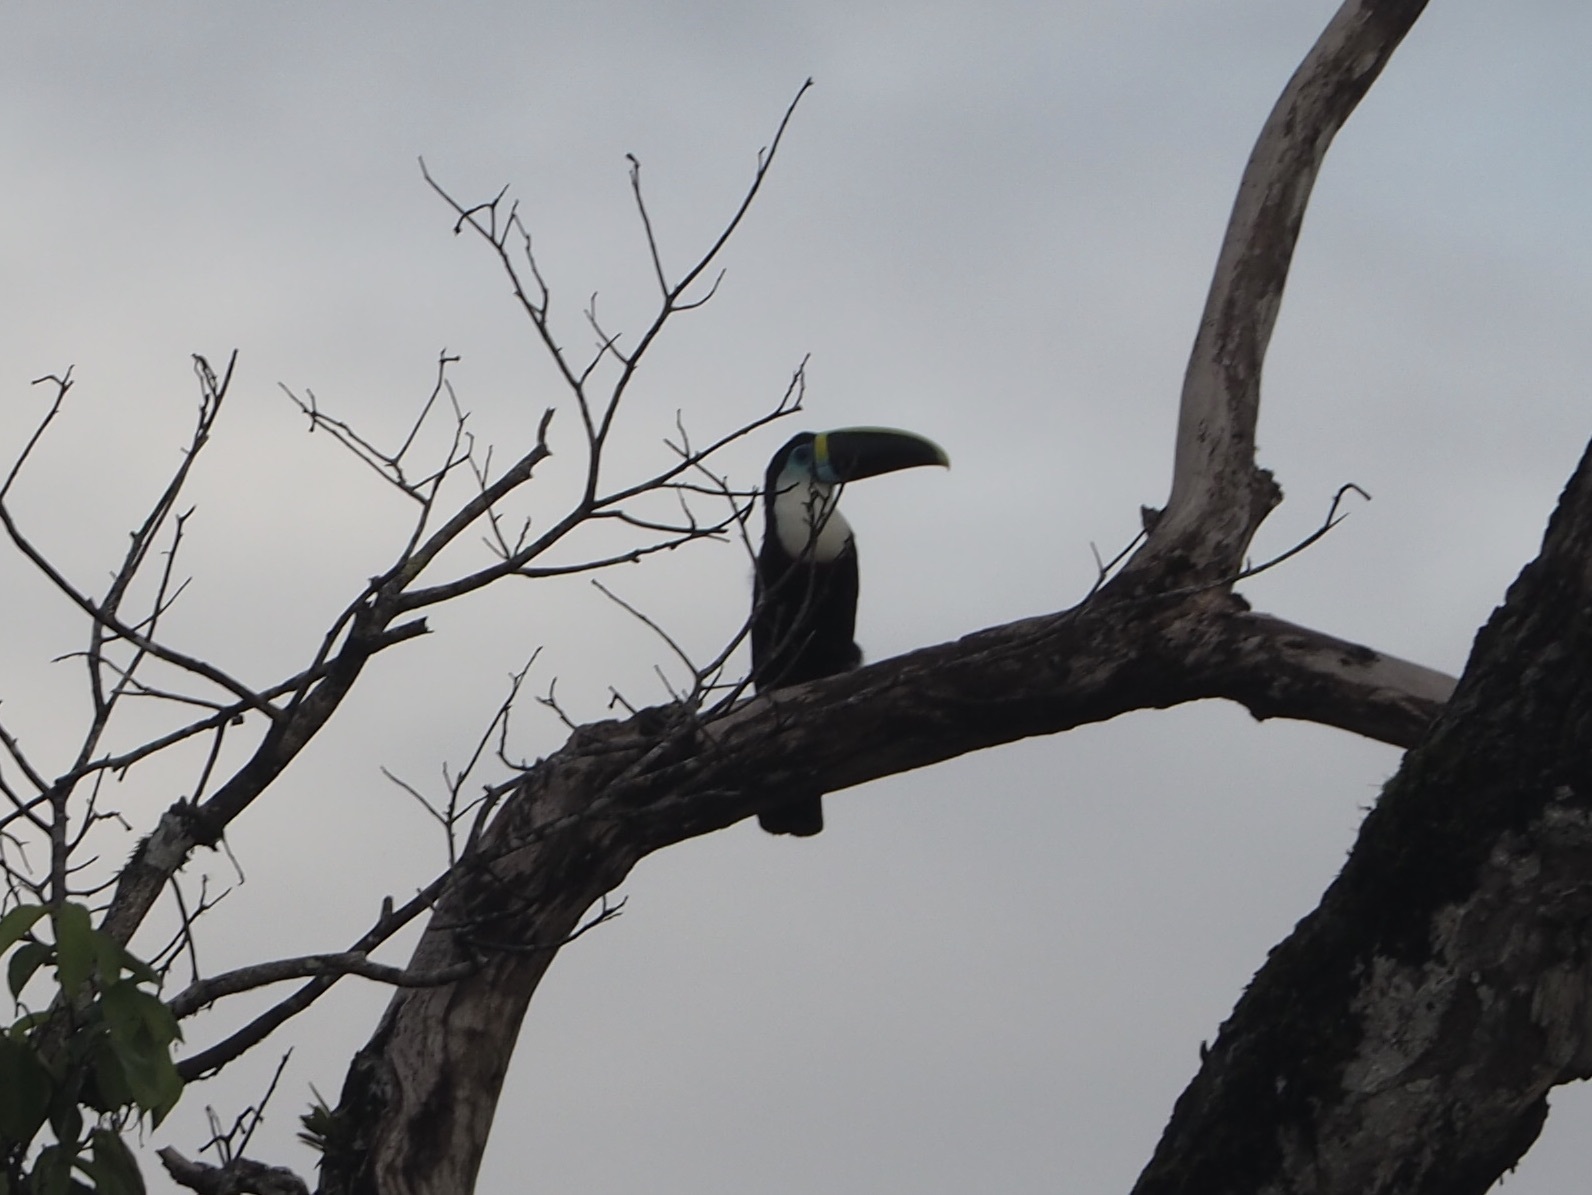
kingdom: Animalia
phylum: Chordata
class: Aves
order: Piciformes
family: Ramphastidae
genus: Ramphastos
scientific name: Ramphastos tucanus
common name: White-throated toucan
